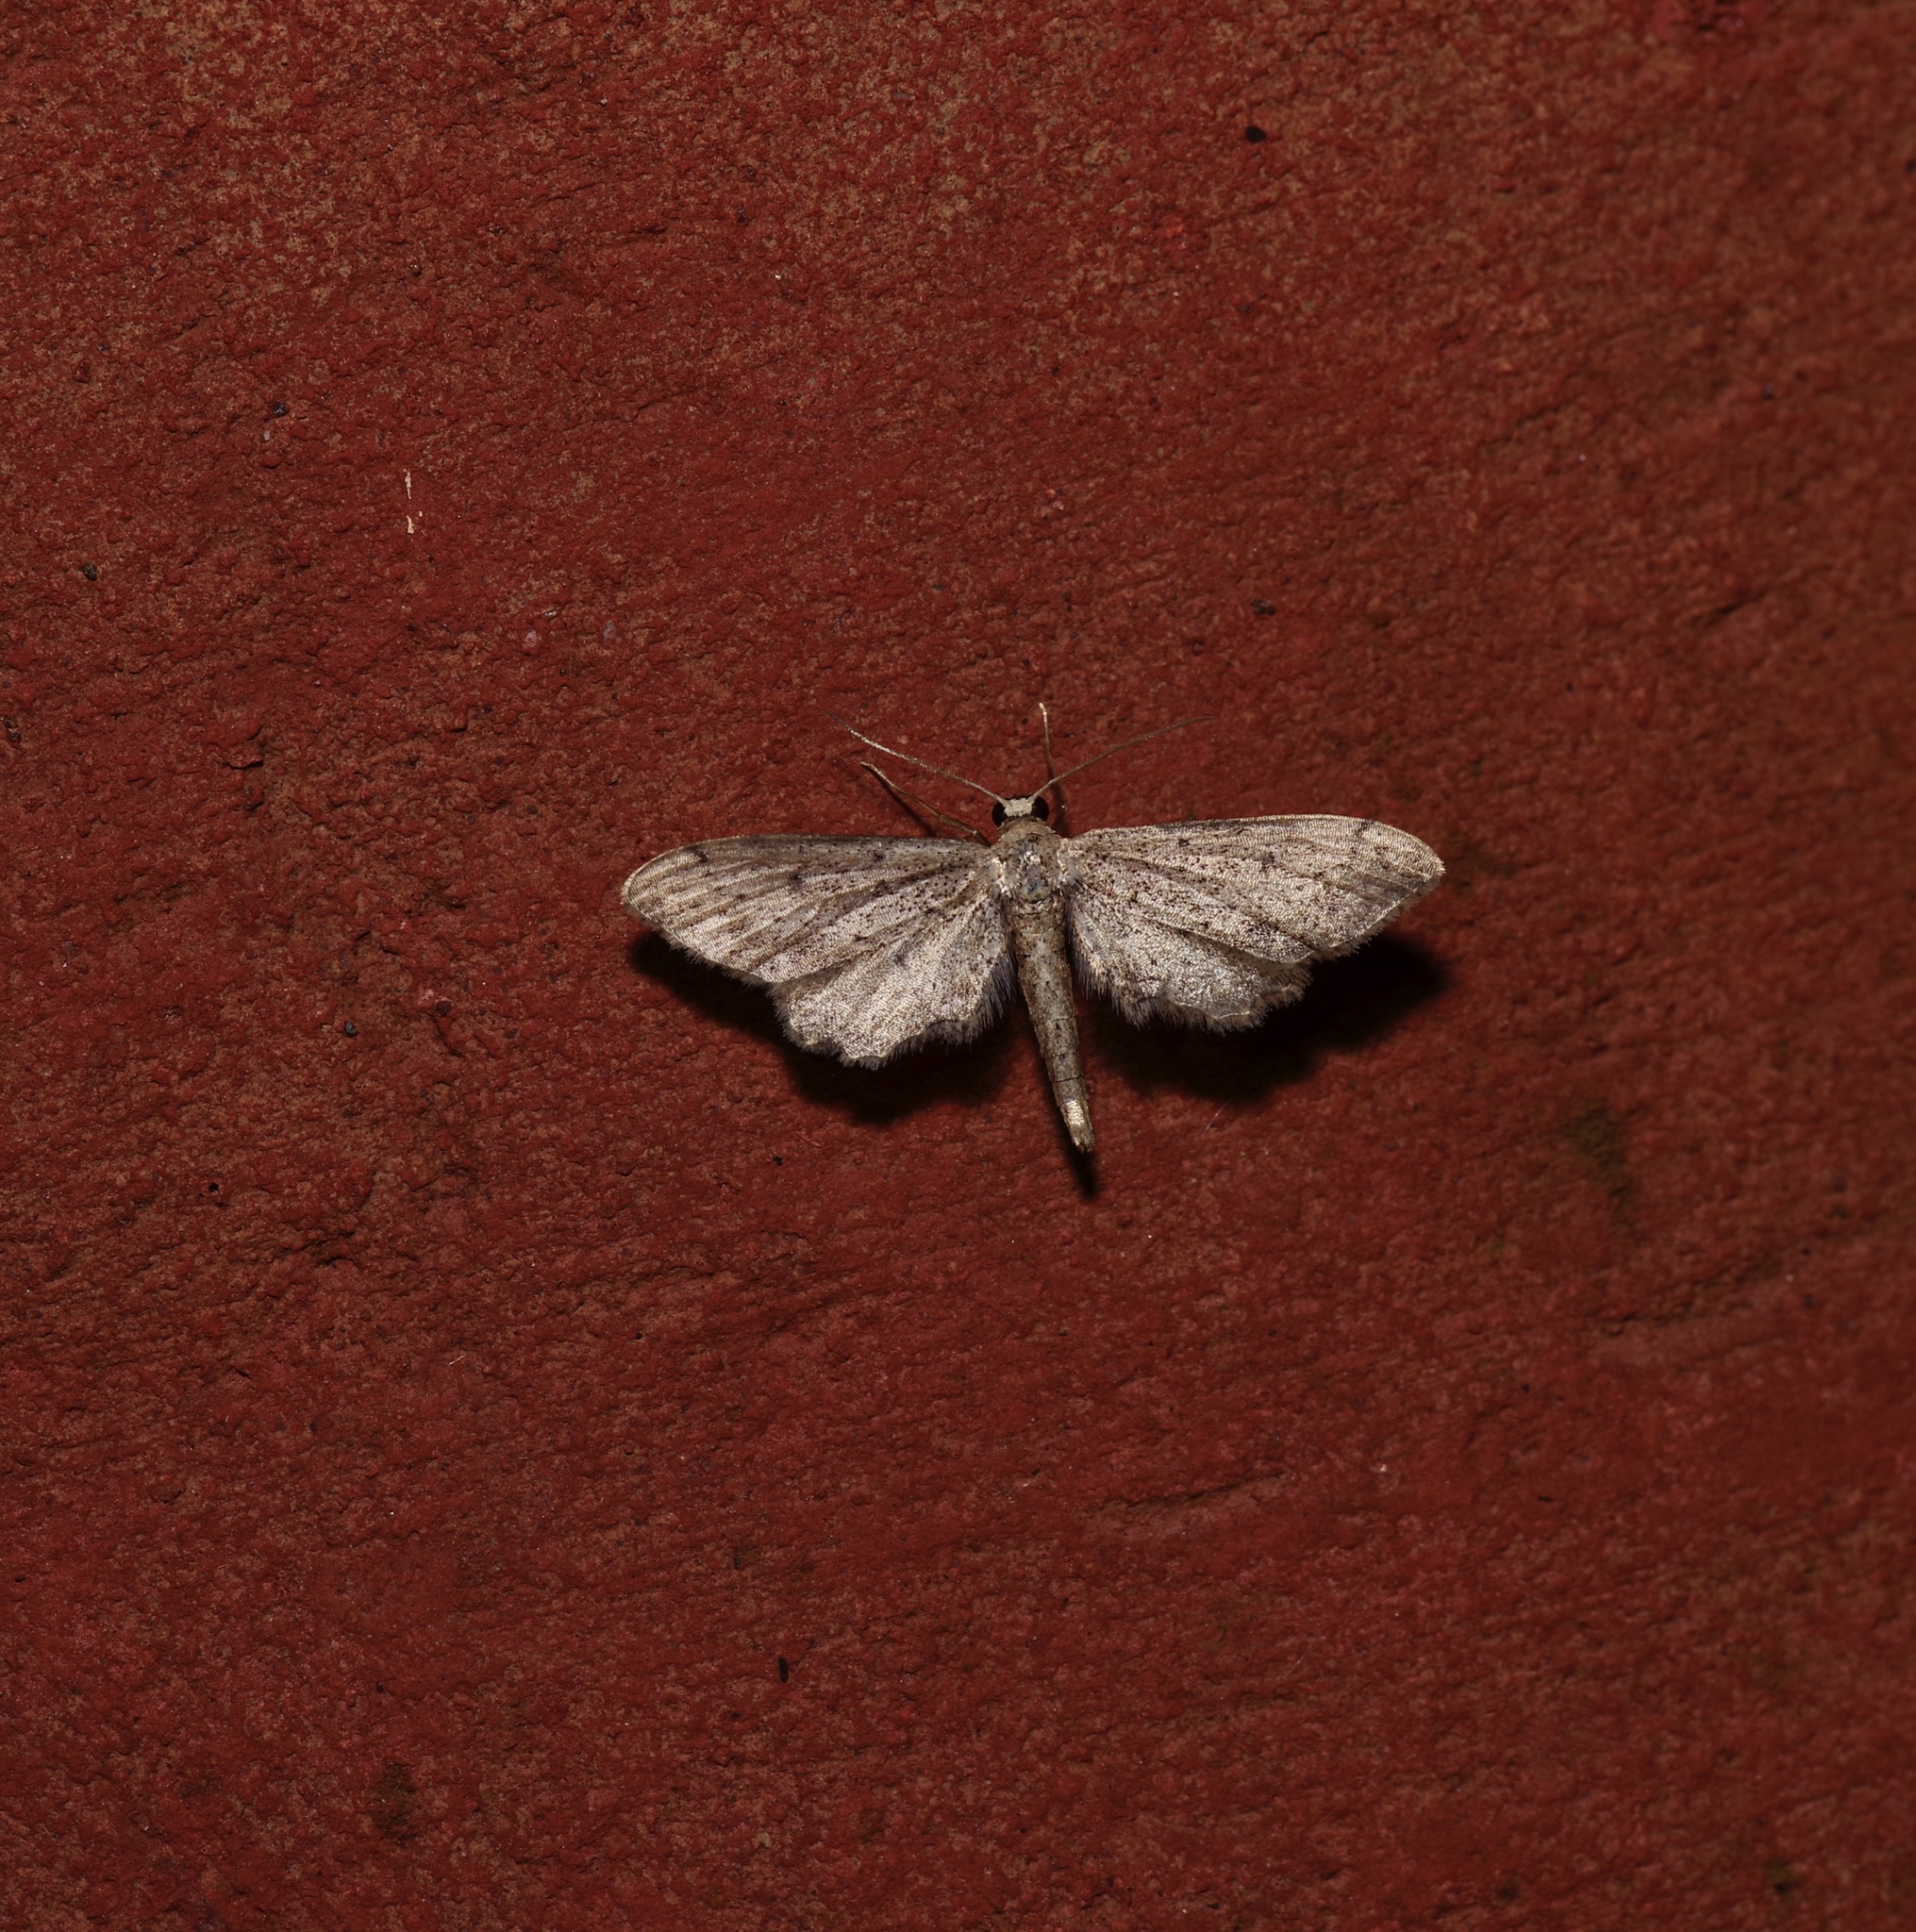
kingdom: Animalia
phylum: Arthropoda
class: Insecta
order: Lepidoptera
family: Geometridae
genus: Euacidalia
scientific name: Euacidalia brownsvillea
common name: Cankerworm
